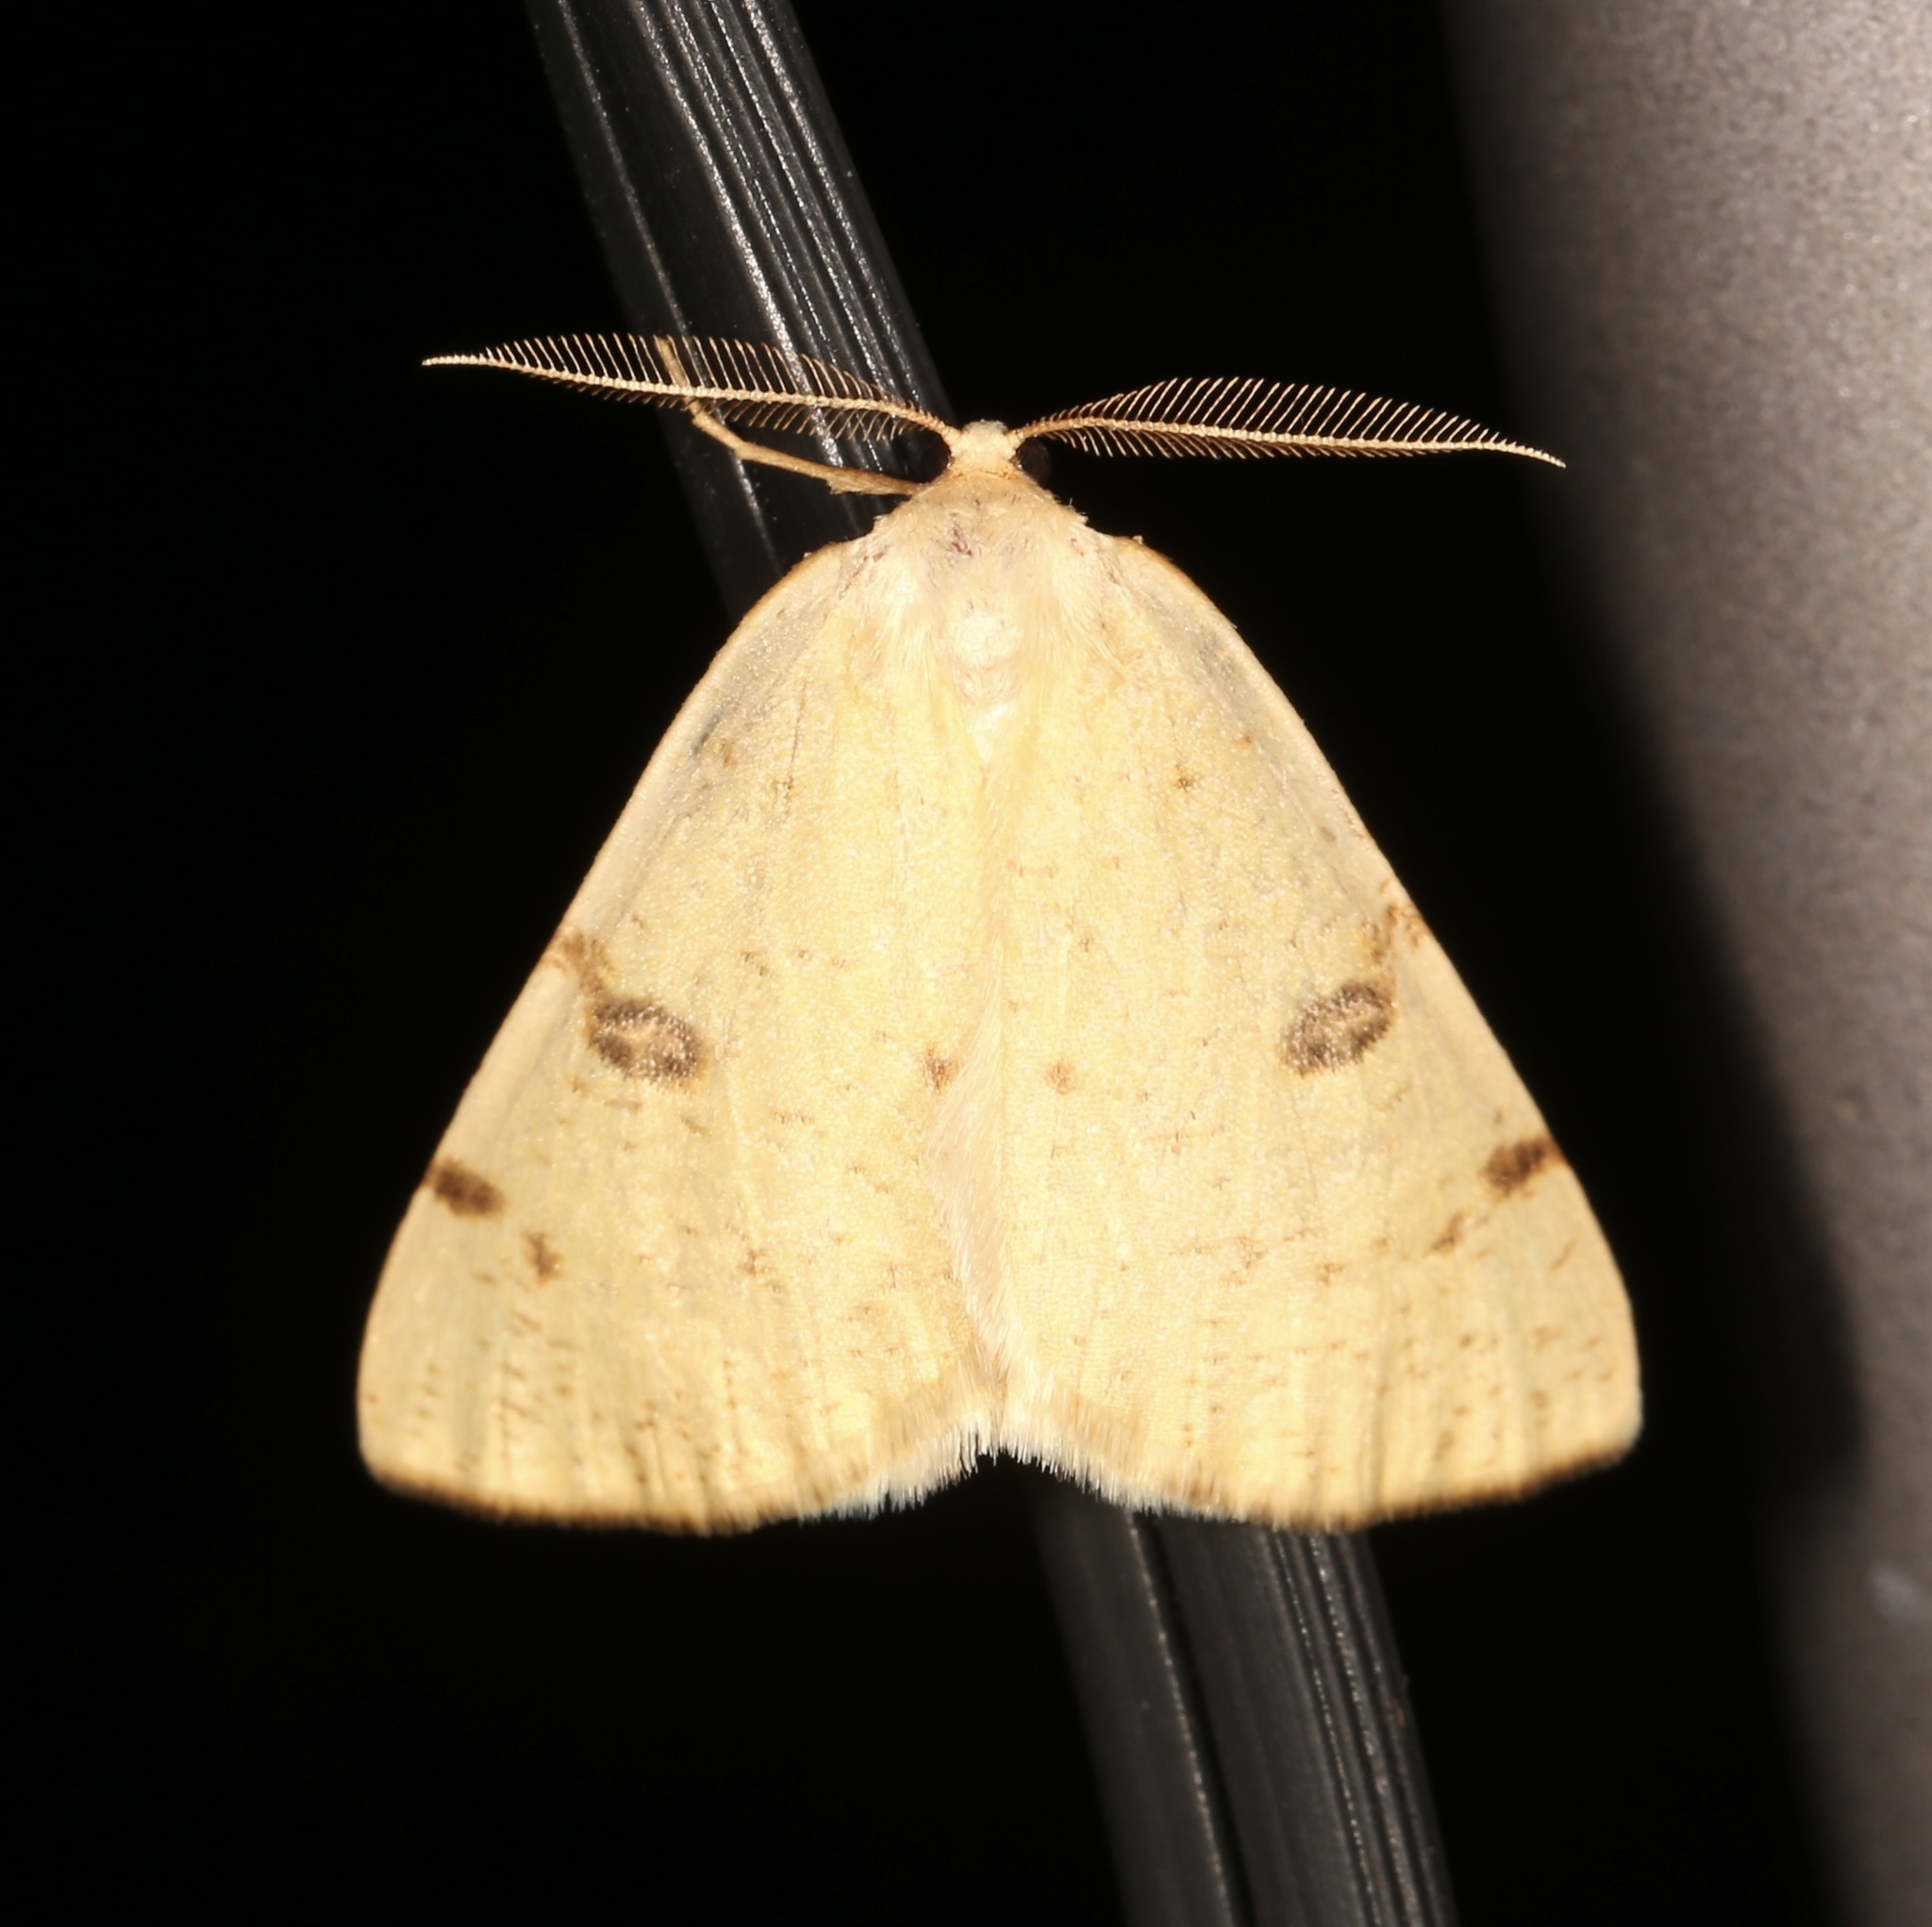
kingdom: Animalia
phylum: Arthropoda
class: Insecta
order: Lepidoptera
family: Geometridae
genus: Hesperumia
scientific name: Hesperumia sulphuraria
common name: Sulphur moth
